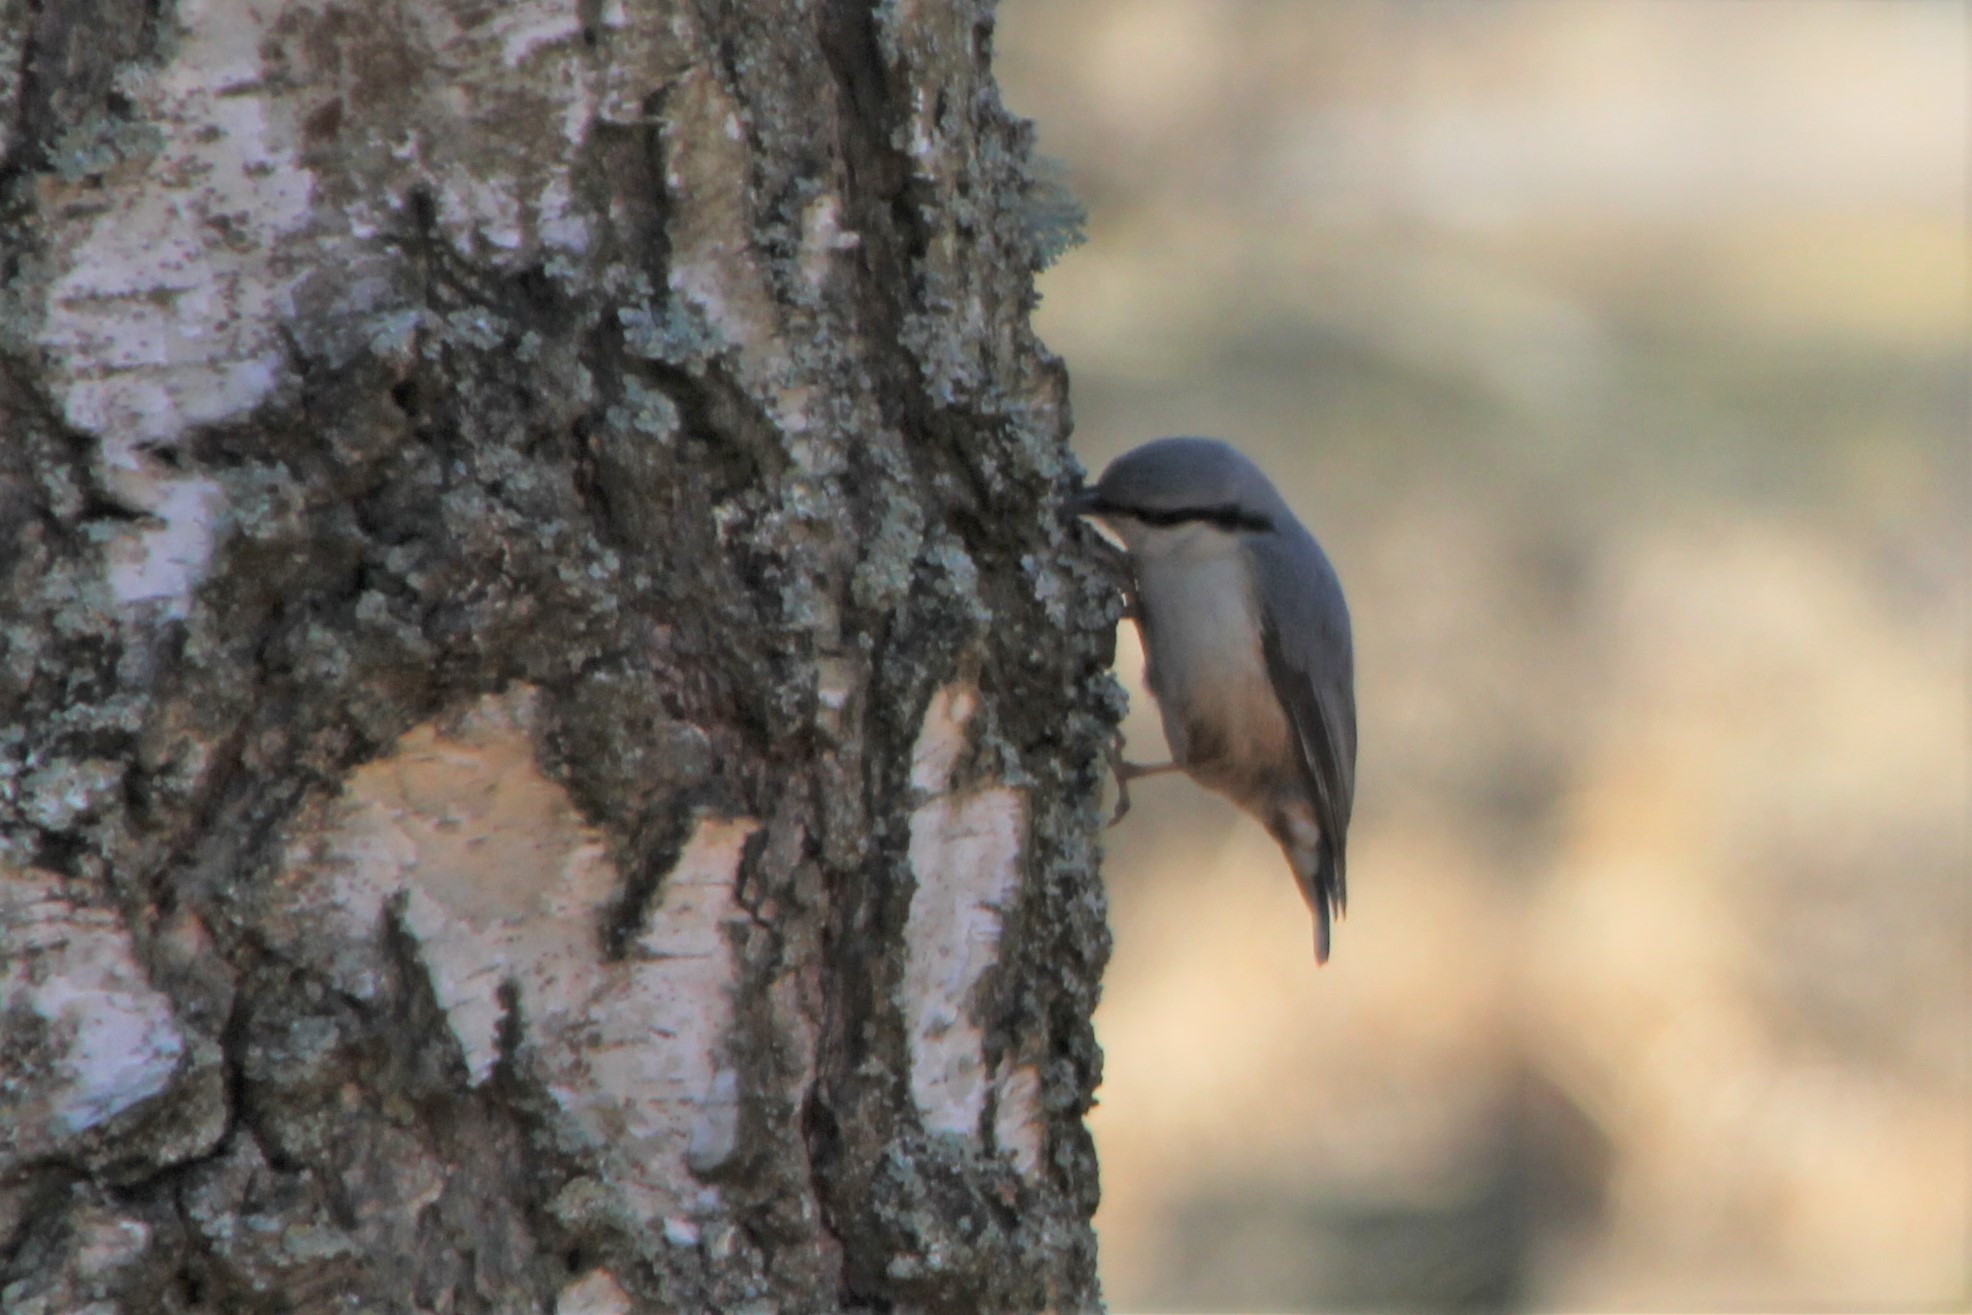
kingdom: Animalia
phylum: Chordata
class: Aves
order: Passeriformes
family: Sittidae
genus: Sitta
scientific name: Sitta europaea
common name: Eurasian nuthatch
